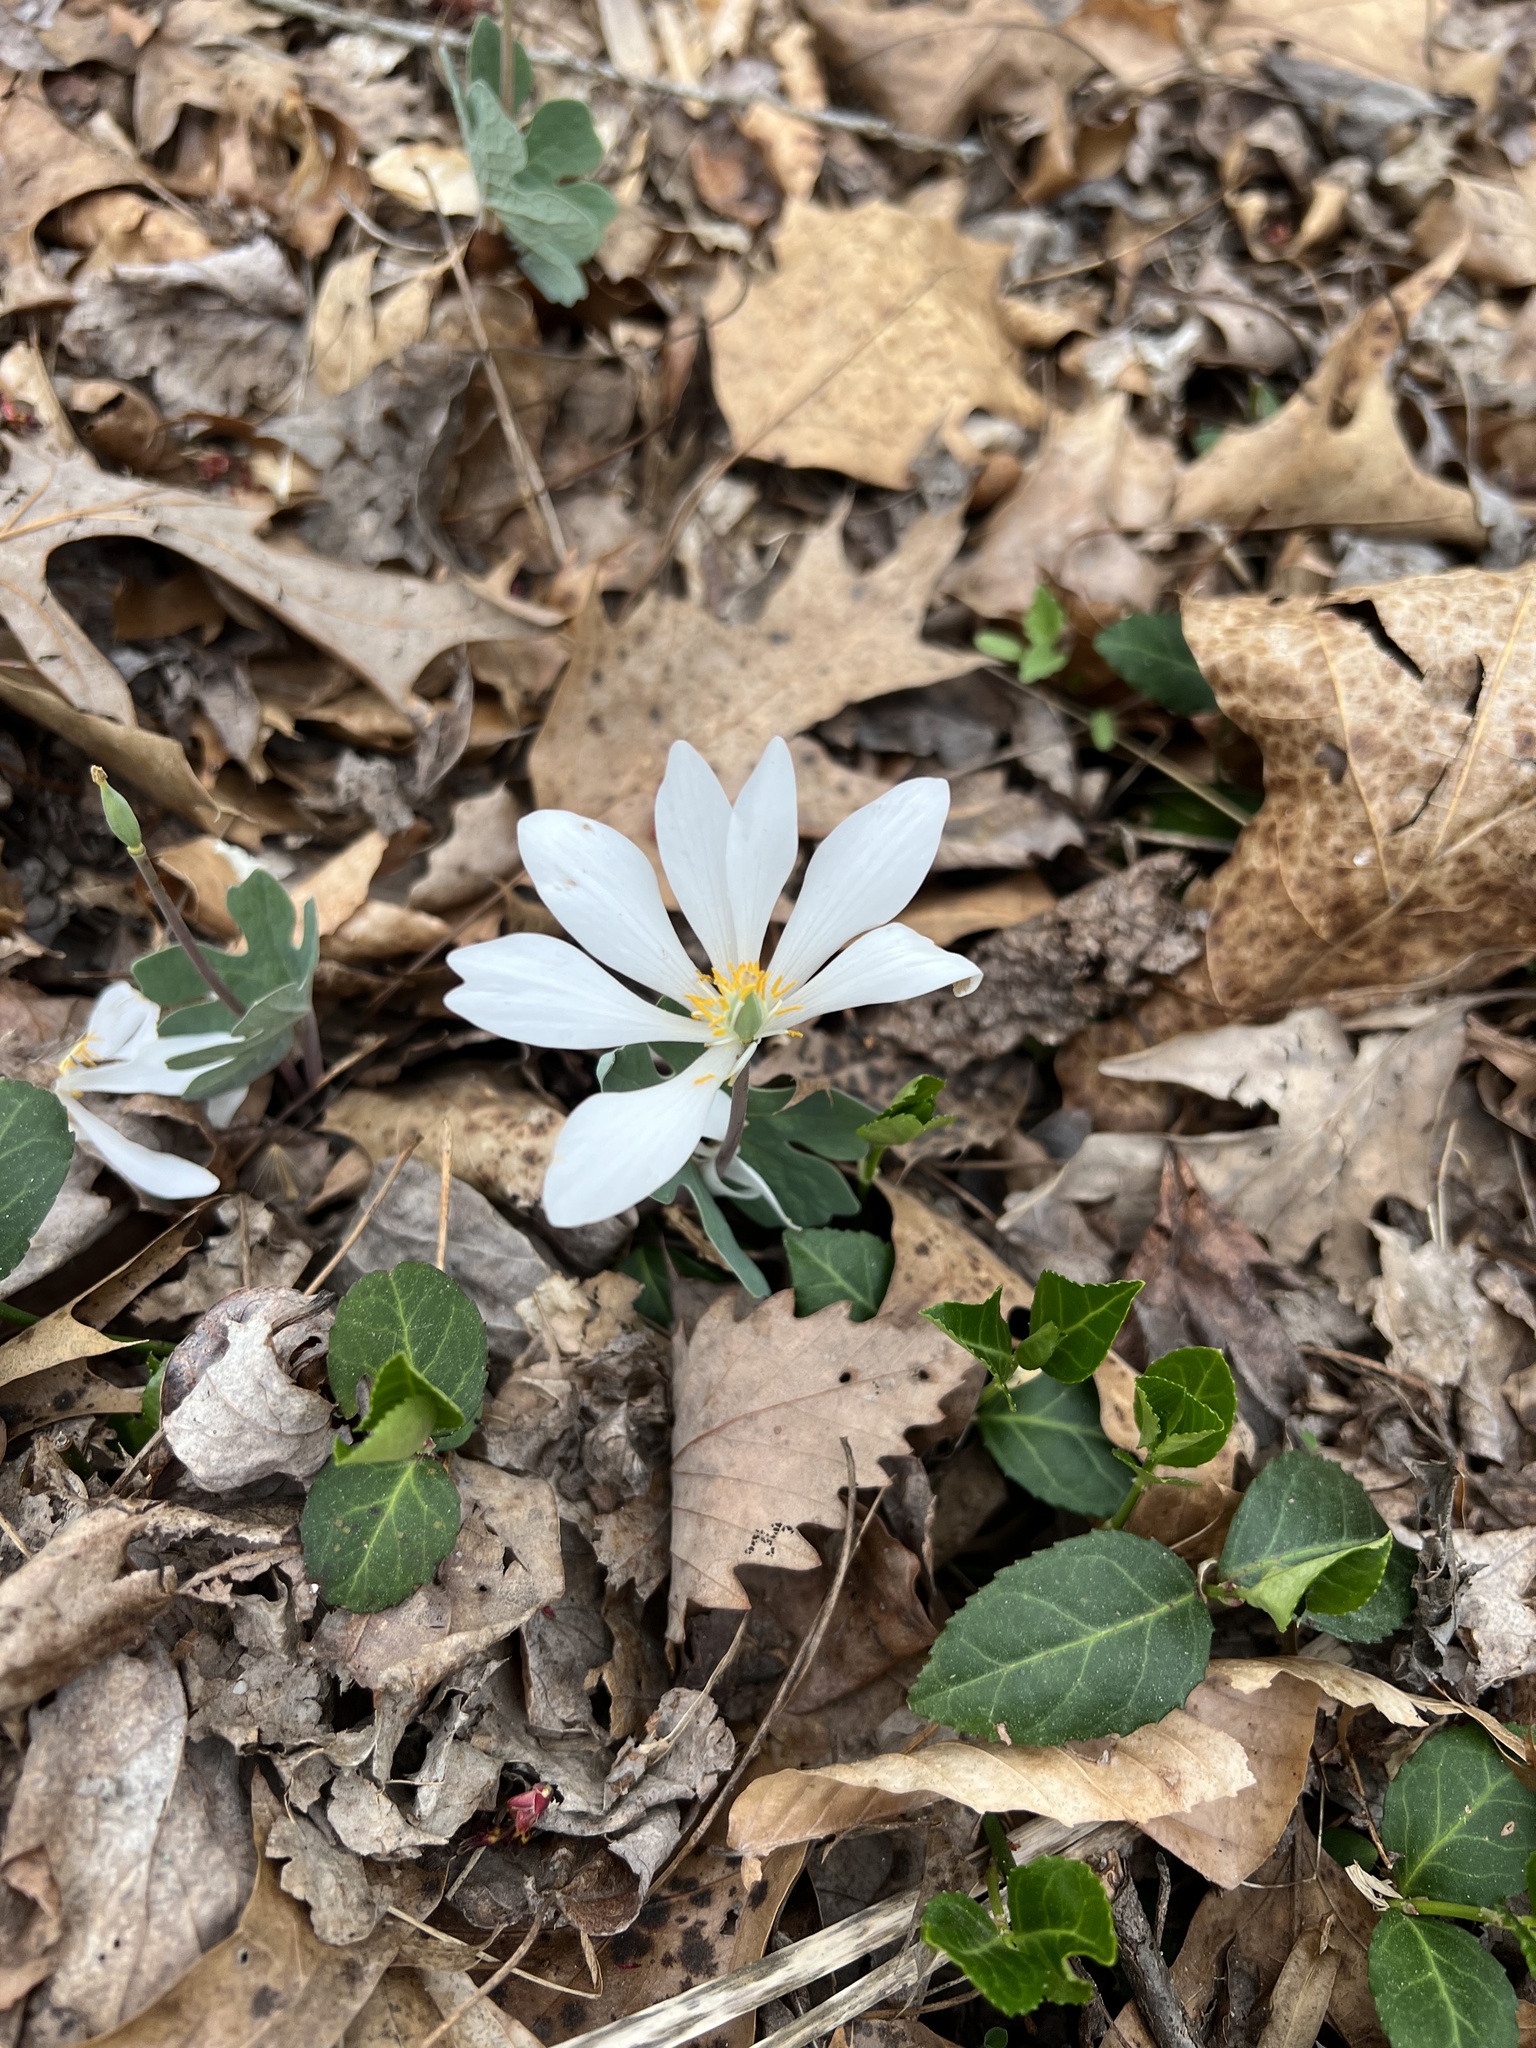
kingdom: Plantae
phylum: Tracheophyta
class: Magnoliopsida
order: Ranunculales
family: Papaveraceae
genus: Sanguinaria
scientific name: Sanguinaria canadensis
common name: Bloodroot
